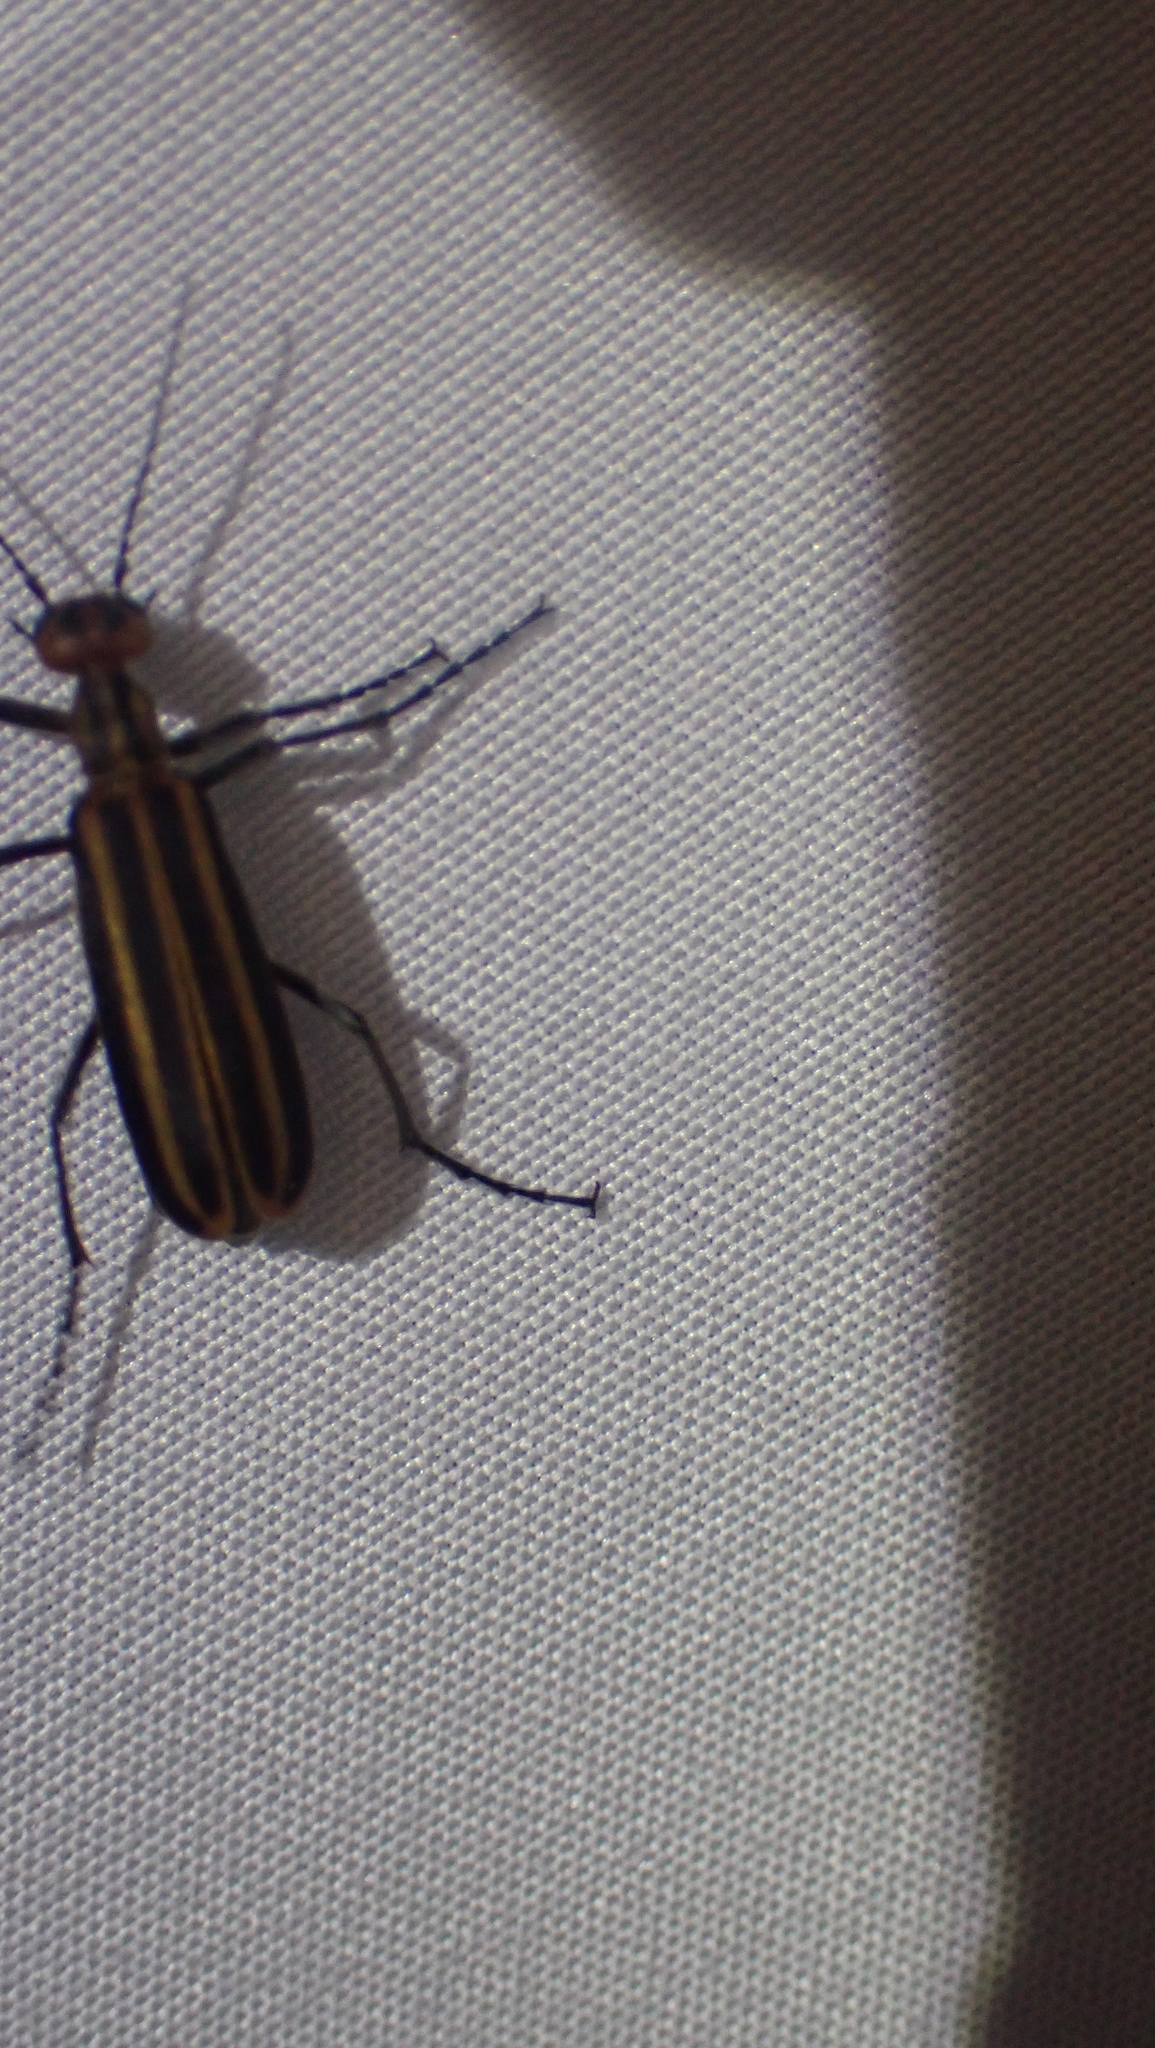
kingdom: Animalia
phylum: Arthropoda
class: Insecta
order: Coleoptera
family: Meloidae
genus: Epicauta
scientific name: Epicauta vittata
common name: Old-fashioned potato beetle
